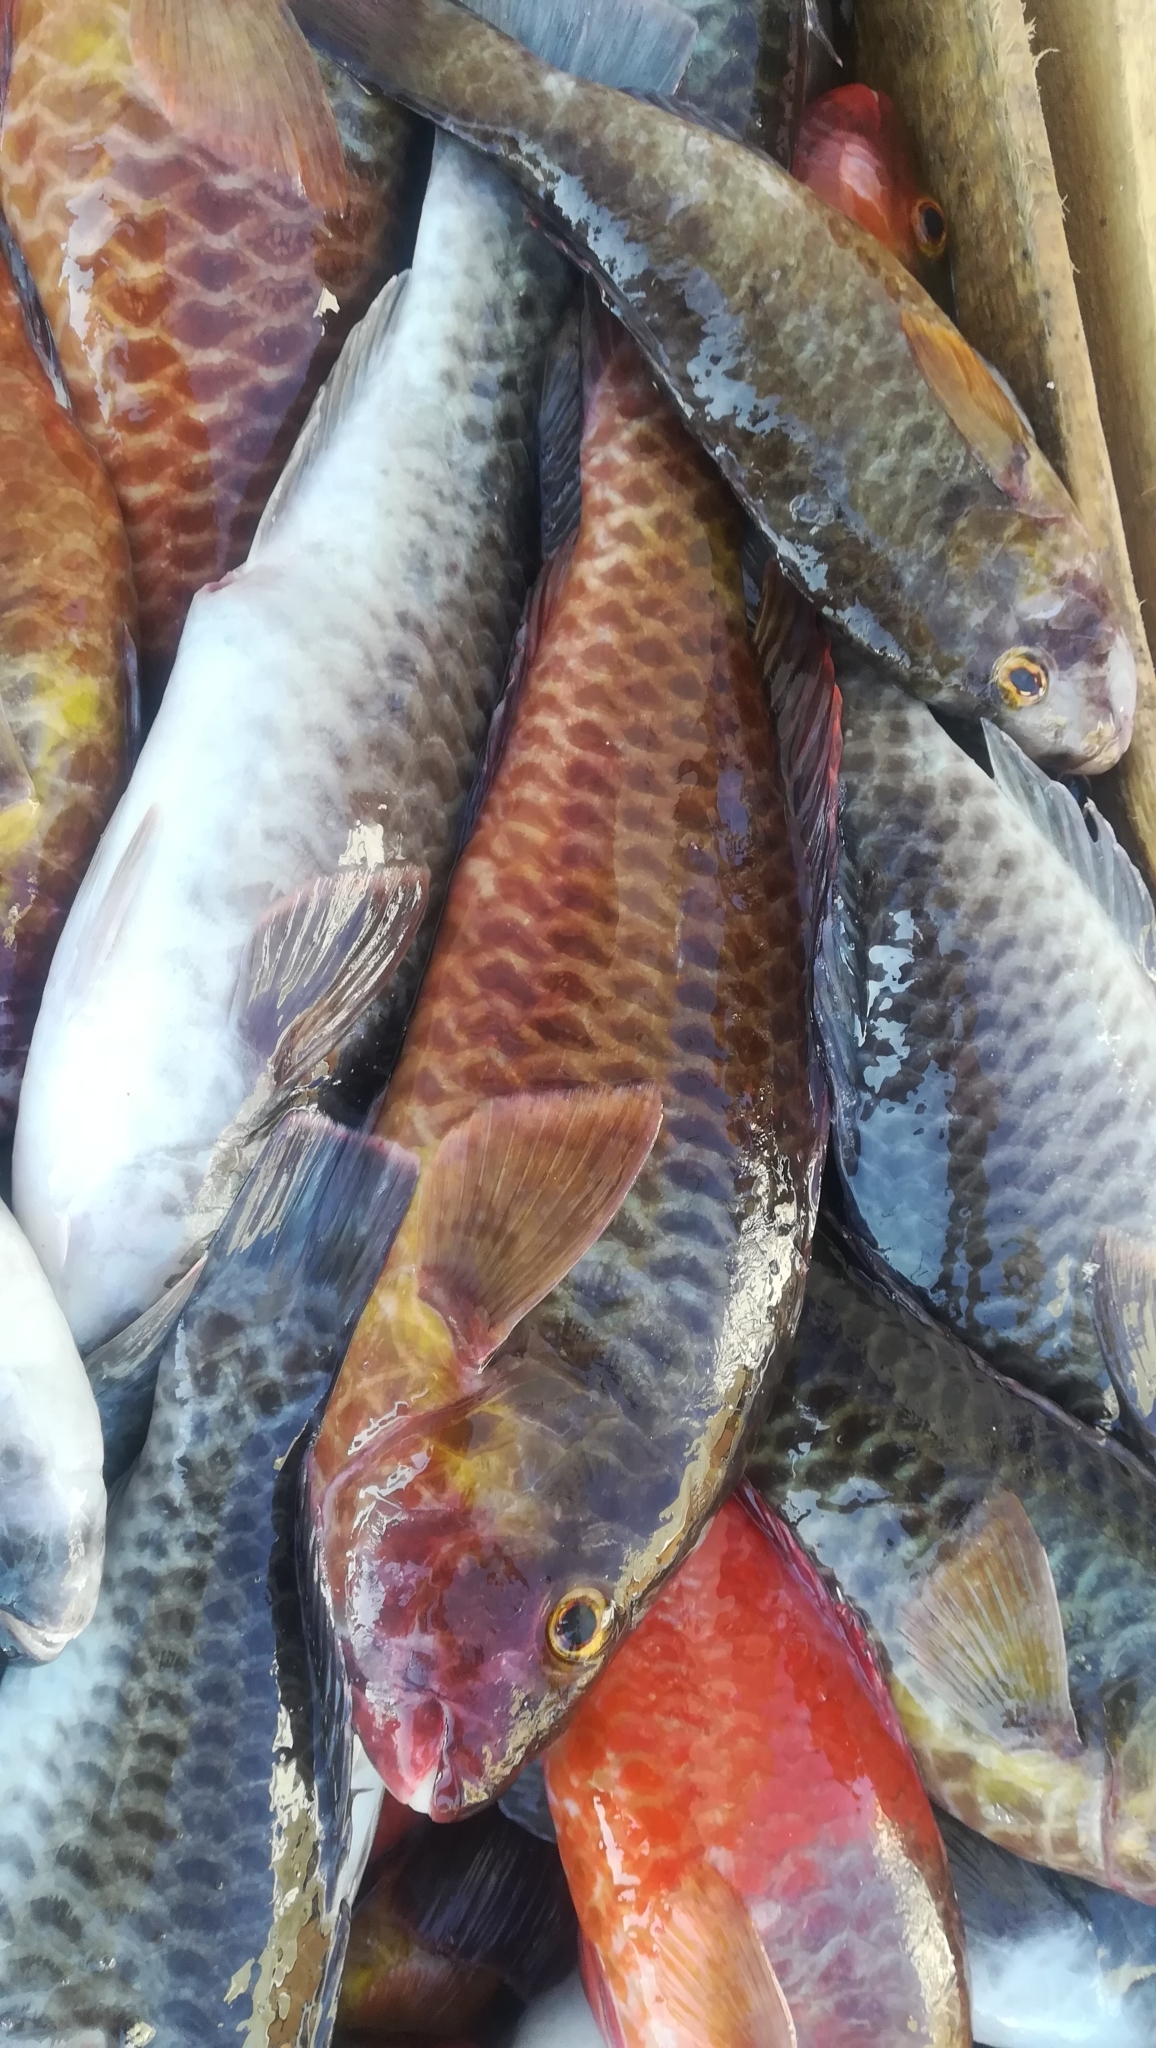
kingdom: Animalia
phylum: Chordata
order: Perciformes
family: Scaridae
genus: Sparisoma
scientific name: Sparisoma cretense
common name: Parrotfish
